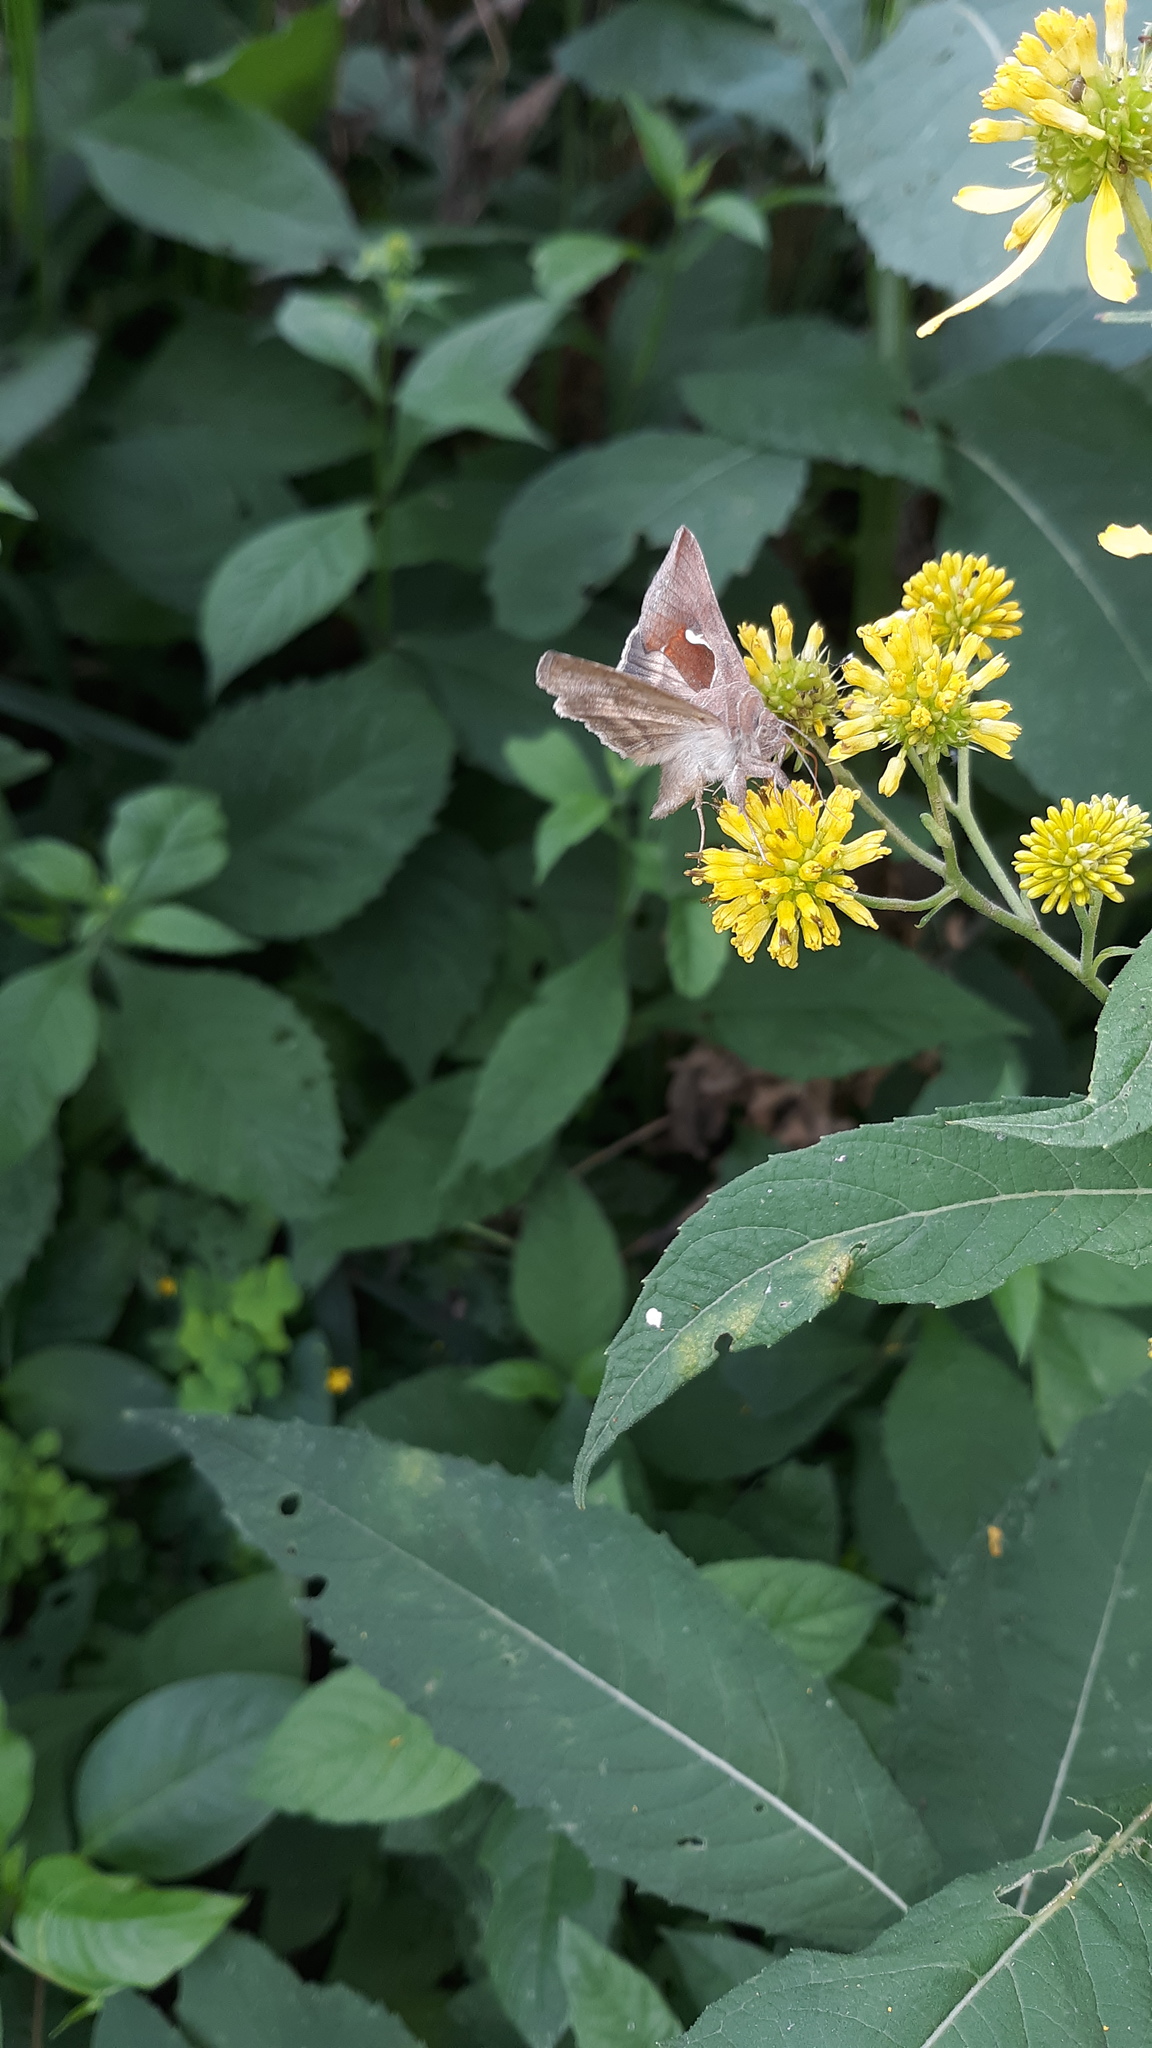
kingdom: Animalia
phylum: Arthropoda
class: Insecta
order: Lepidoptera
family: Noctuidae
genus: Anagrapha
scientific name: Anagrapha falcifera
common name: Celery looper
